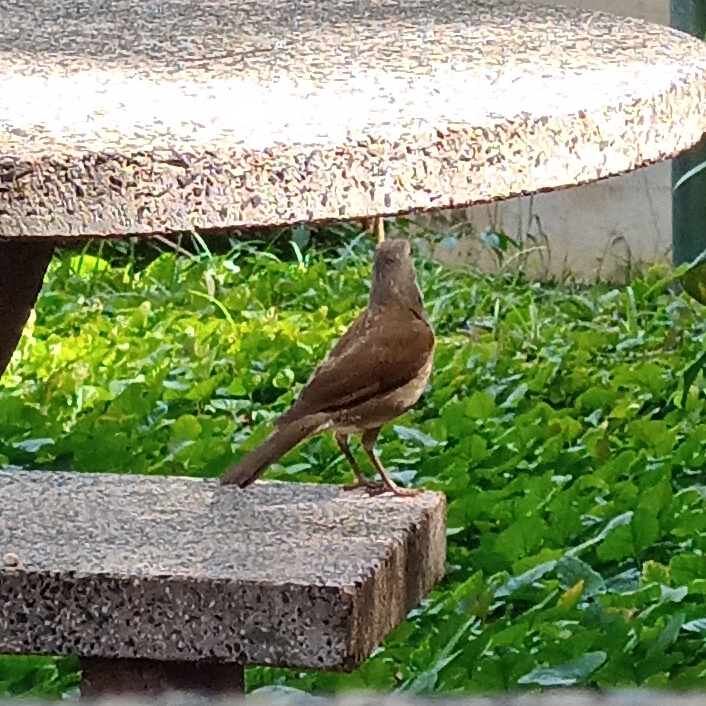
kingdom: Animalia
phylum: Chordata
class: Aves
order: Passeriformes
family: Turdidae
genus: Turdus
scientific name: Turdus leucomelas
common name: Pale-breasted thrush
